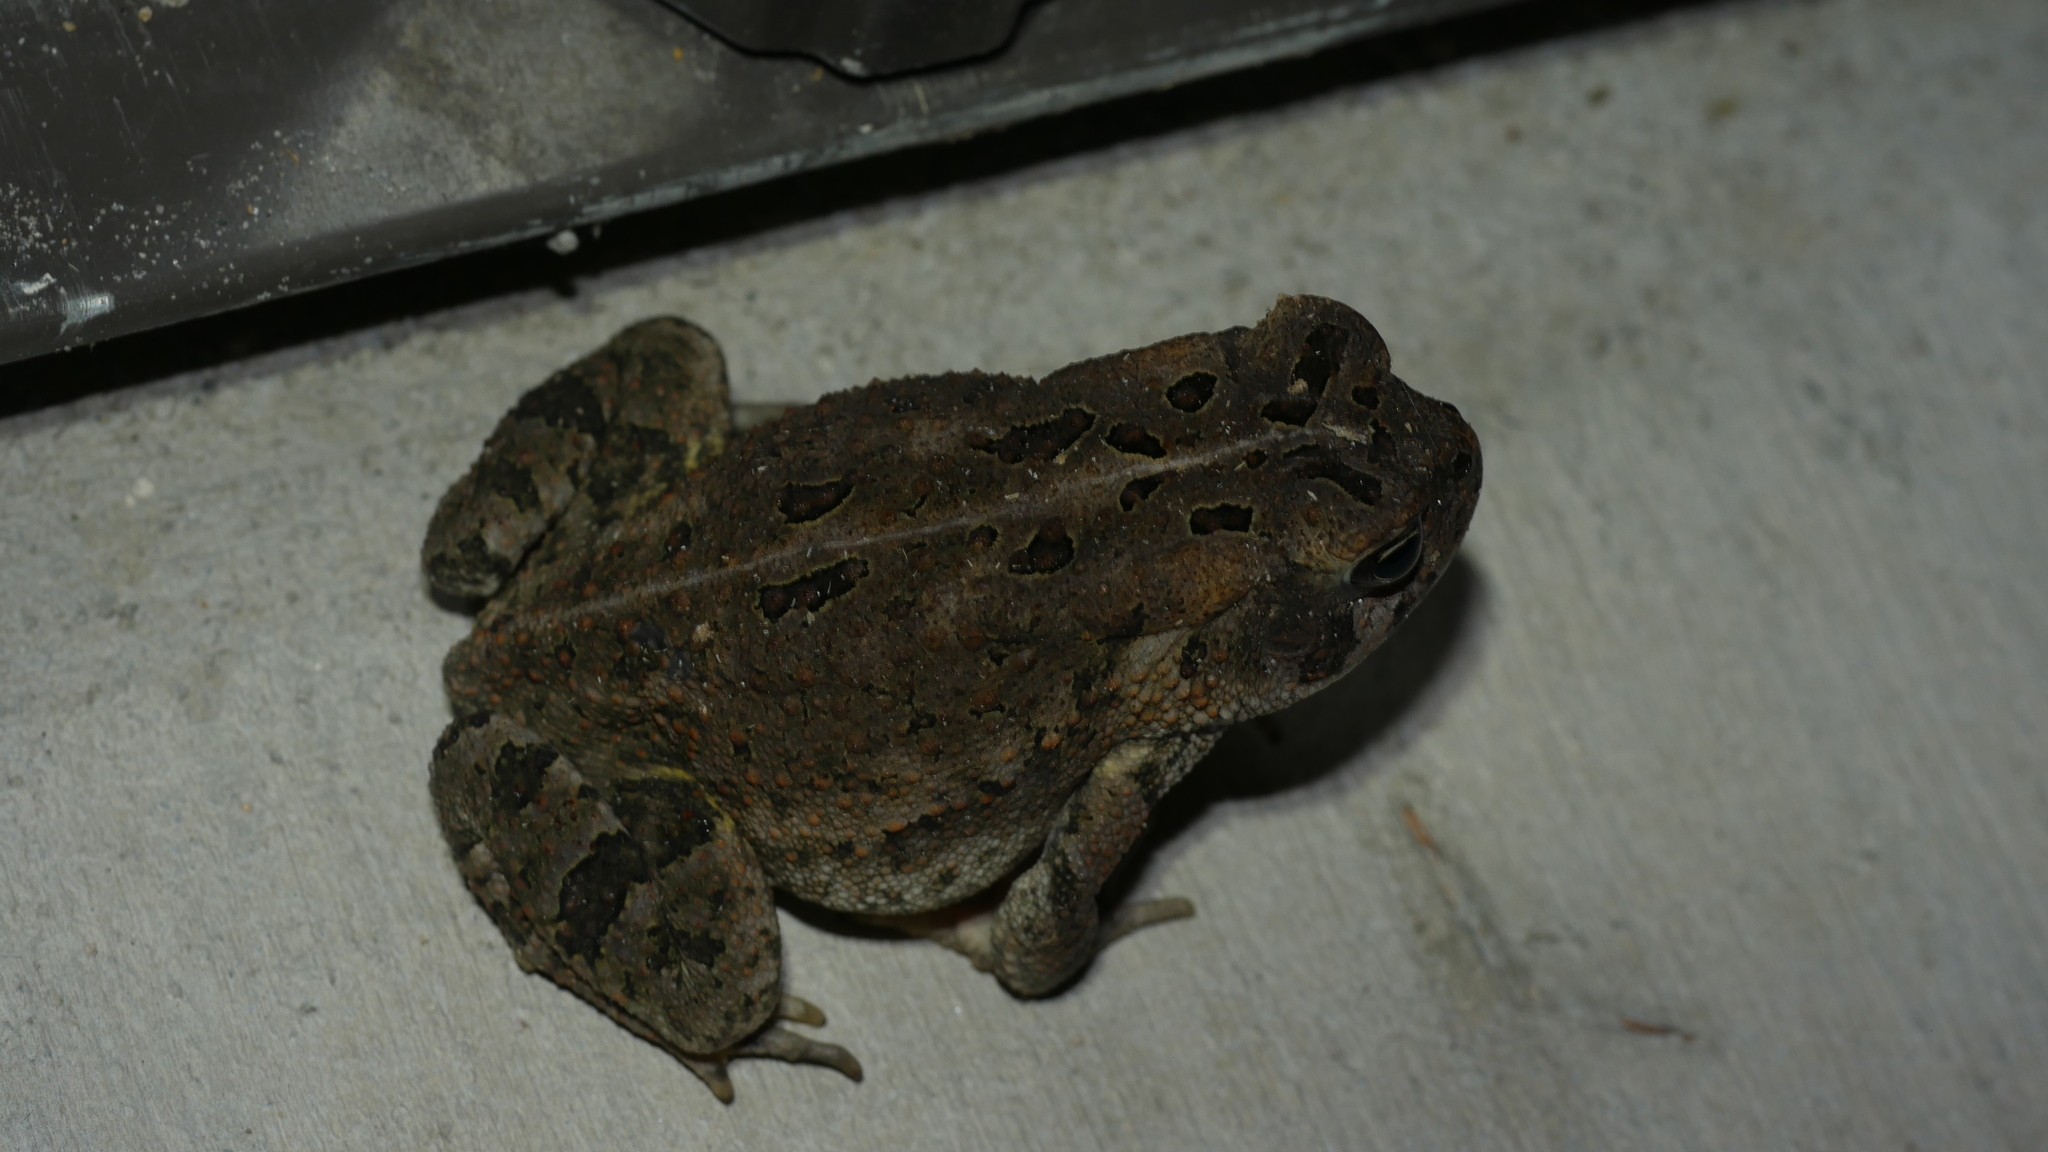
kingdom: Animalia
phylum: Chordata
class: Amphibia
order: Anura
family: Bufonidae
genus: Anaxyrus
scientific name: Anaxyrus fowleri
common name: Fowler's toad
